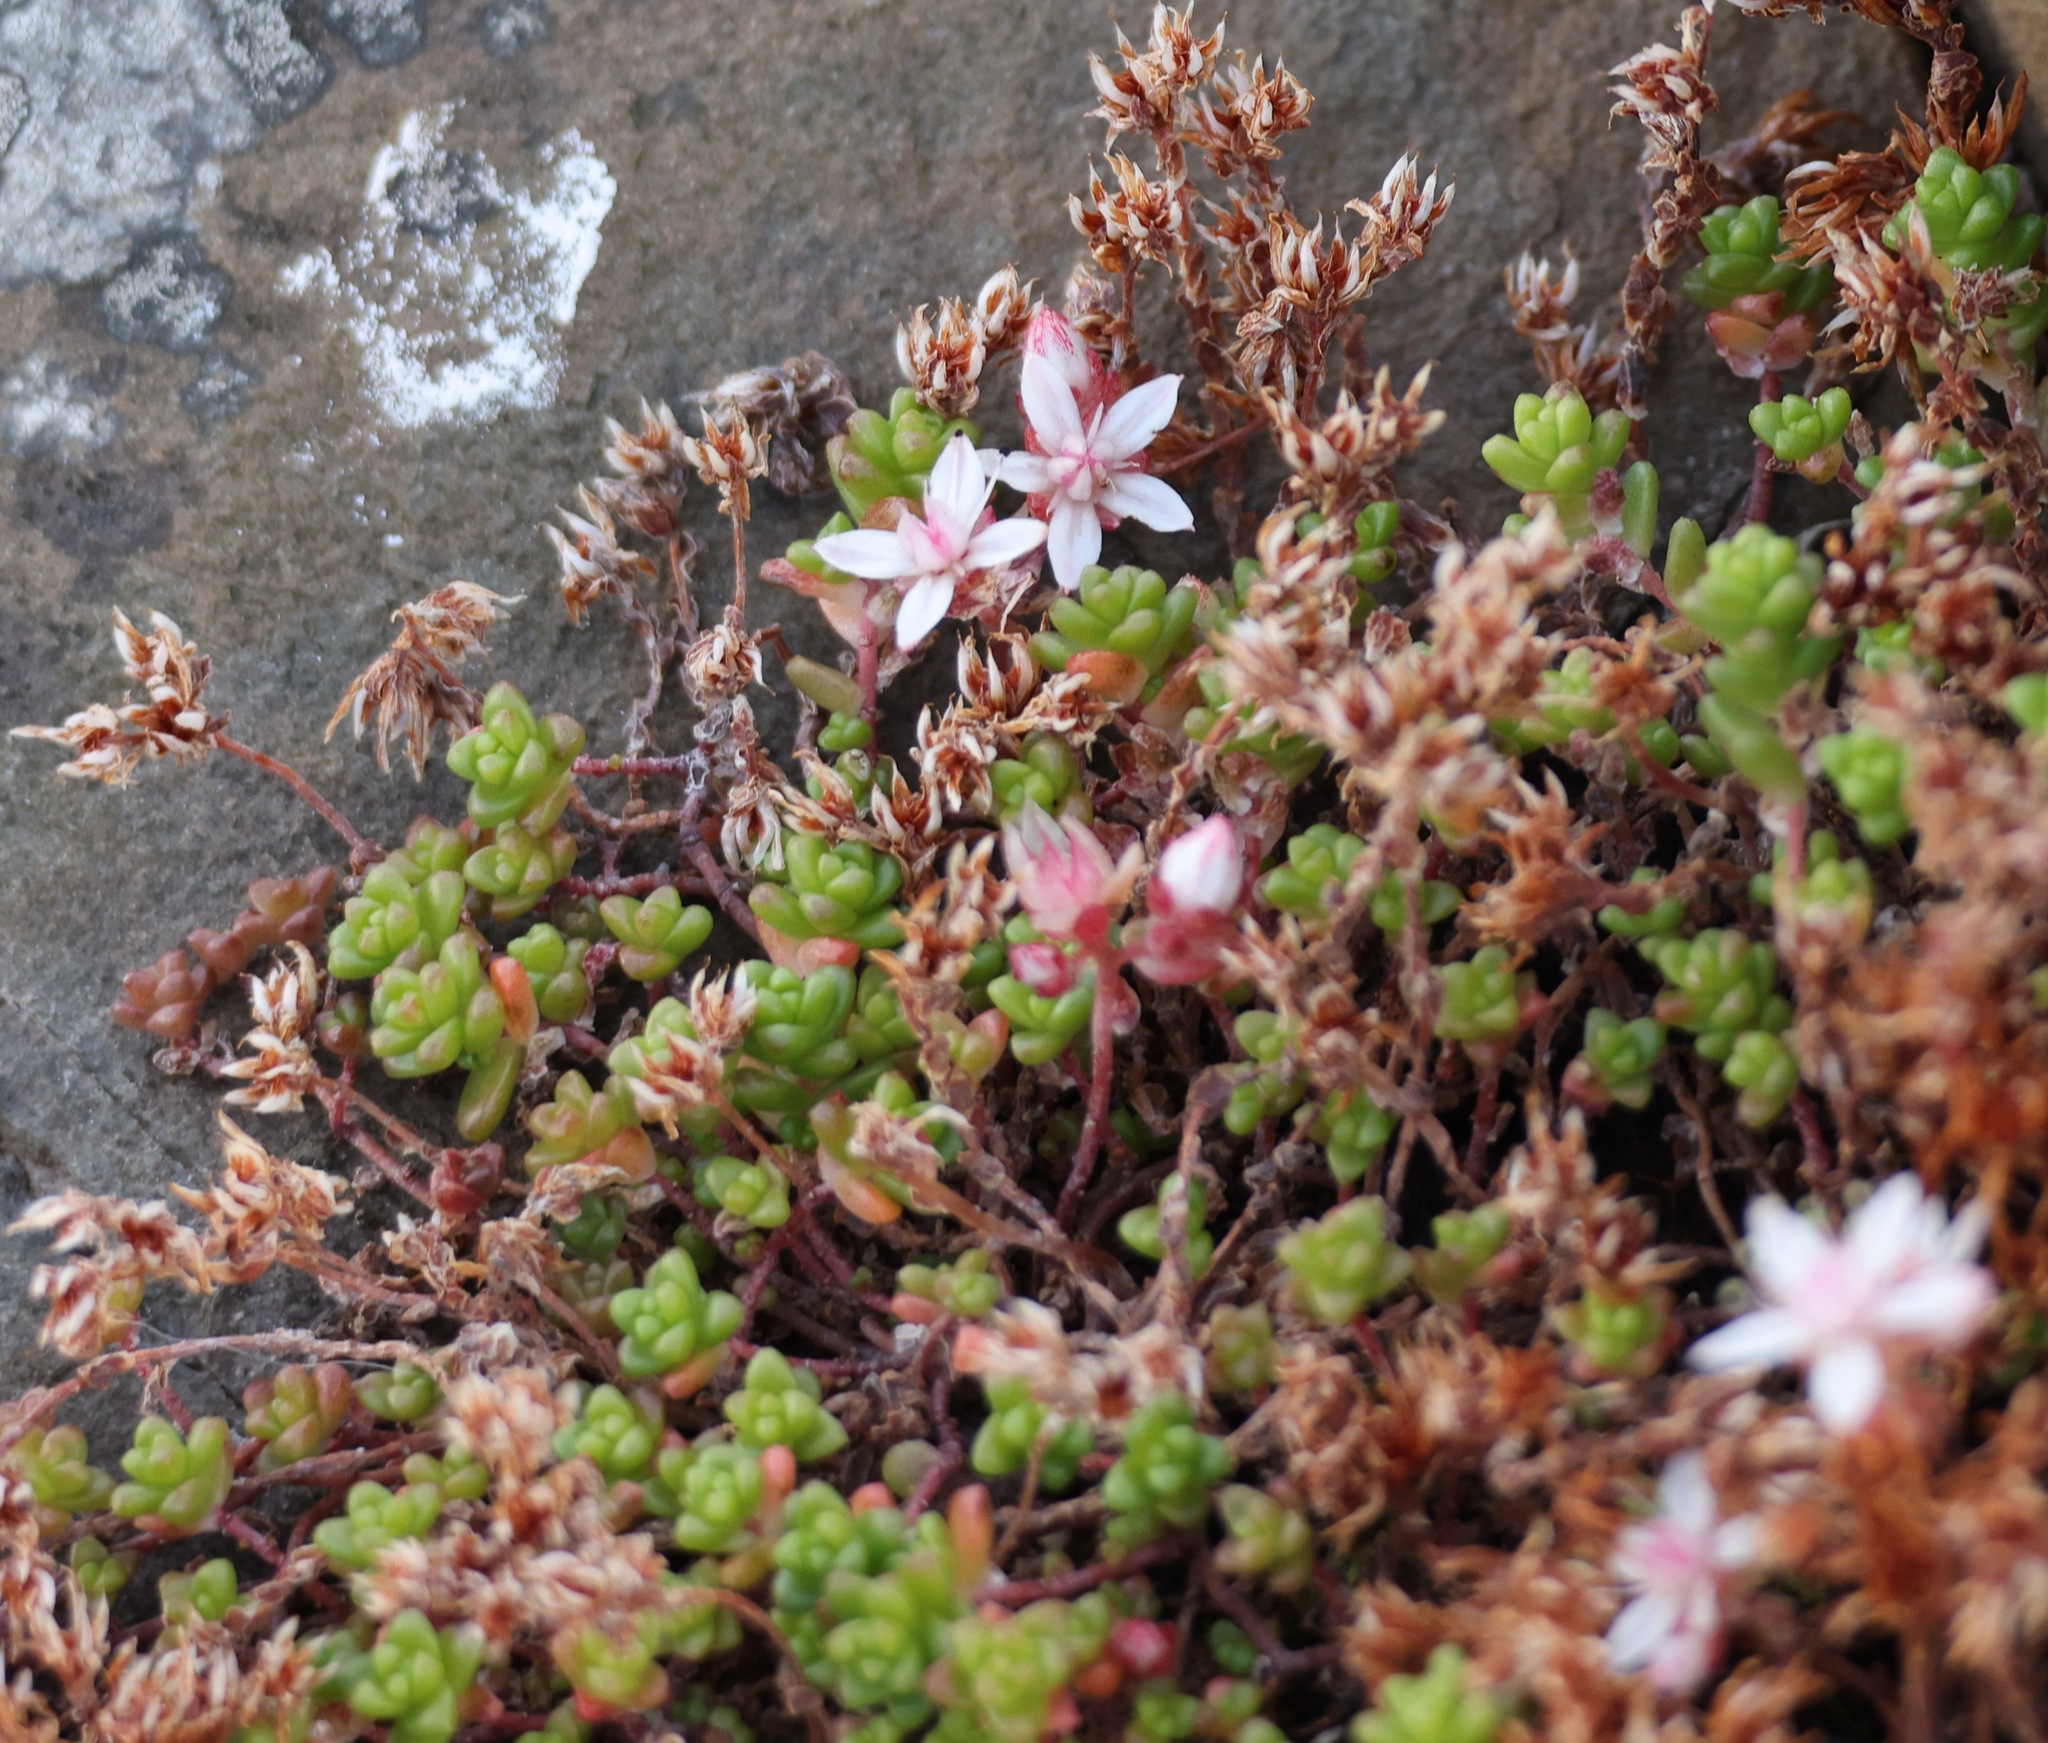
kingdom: Plantae
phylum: Tracheophyta
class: Magnoliopsida
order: Saxifragales
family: Crassulaceae
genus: Sedum
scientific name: Sedum anglicum
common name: English stonecrop
